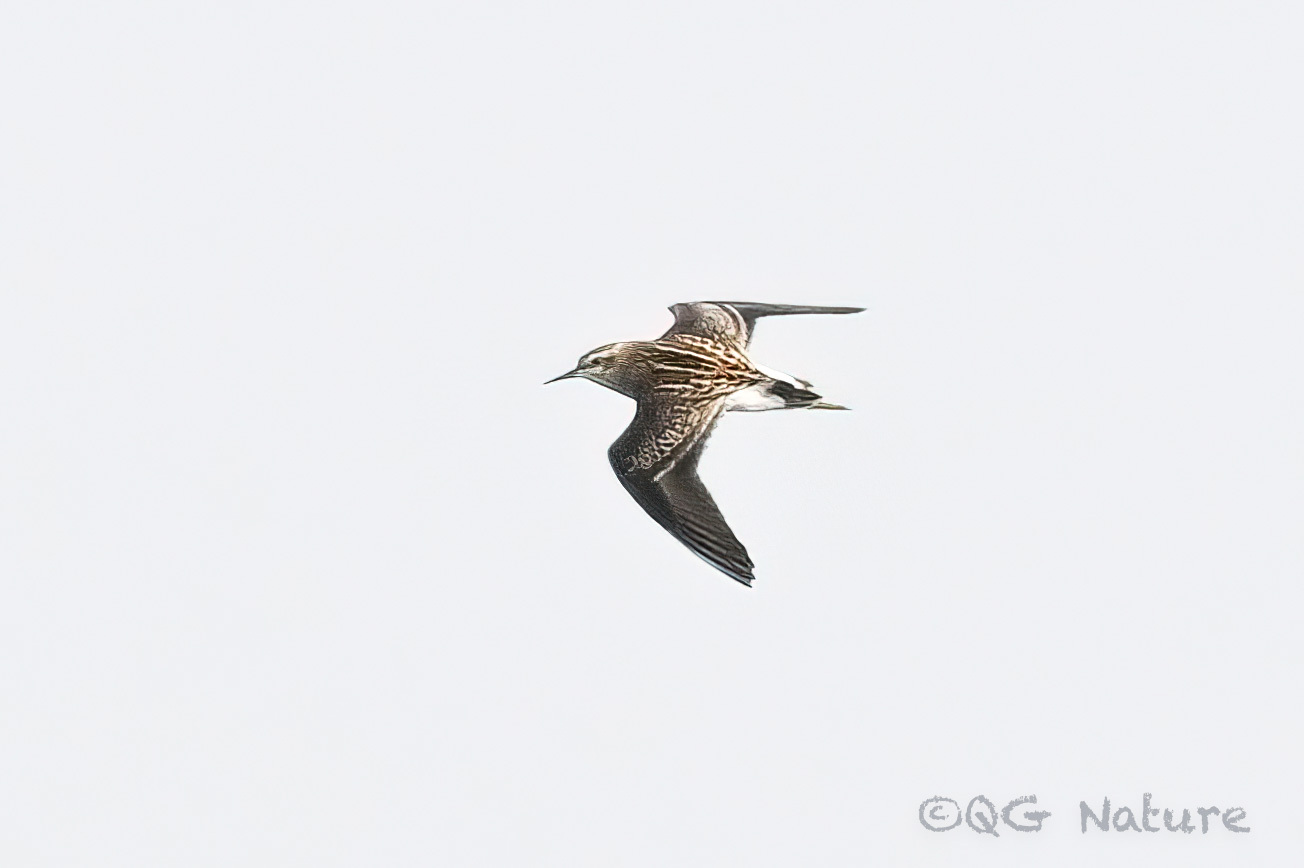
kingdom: Animalia
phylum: Chordata
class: Aves
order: Charadriiformes
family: Scolopacidae
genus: Calidris
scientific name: Calidris subminuta
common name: Long-toed stint
